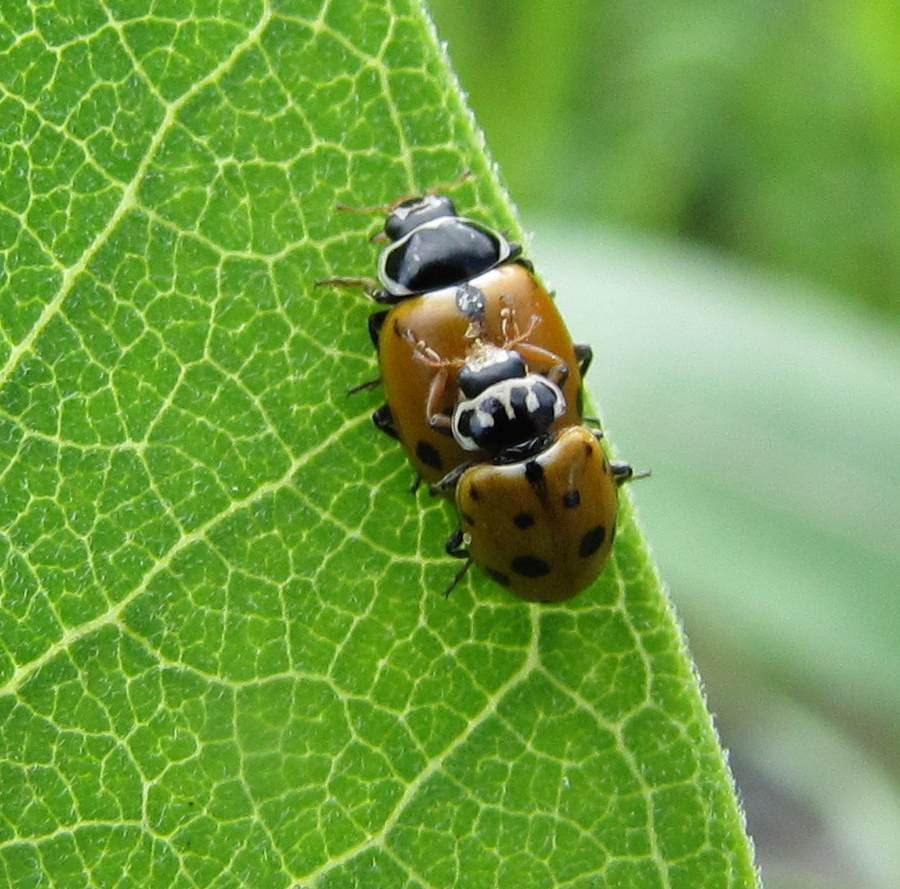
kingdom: Animalia
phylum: Arthropoda
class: Insecta
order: Coleoptera
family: Coccinellidae
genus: Hippodamia
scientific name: Hippodamia variegata
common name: Ladybird beetle
